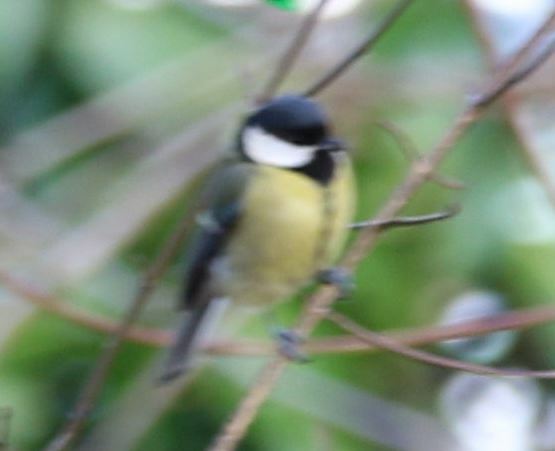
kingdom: Animalia
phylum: Chordata
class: Aves
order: Passeriformes
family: Paridae
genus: Parus
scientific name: Parus major
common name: Great tit
